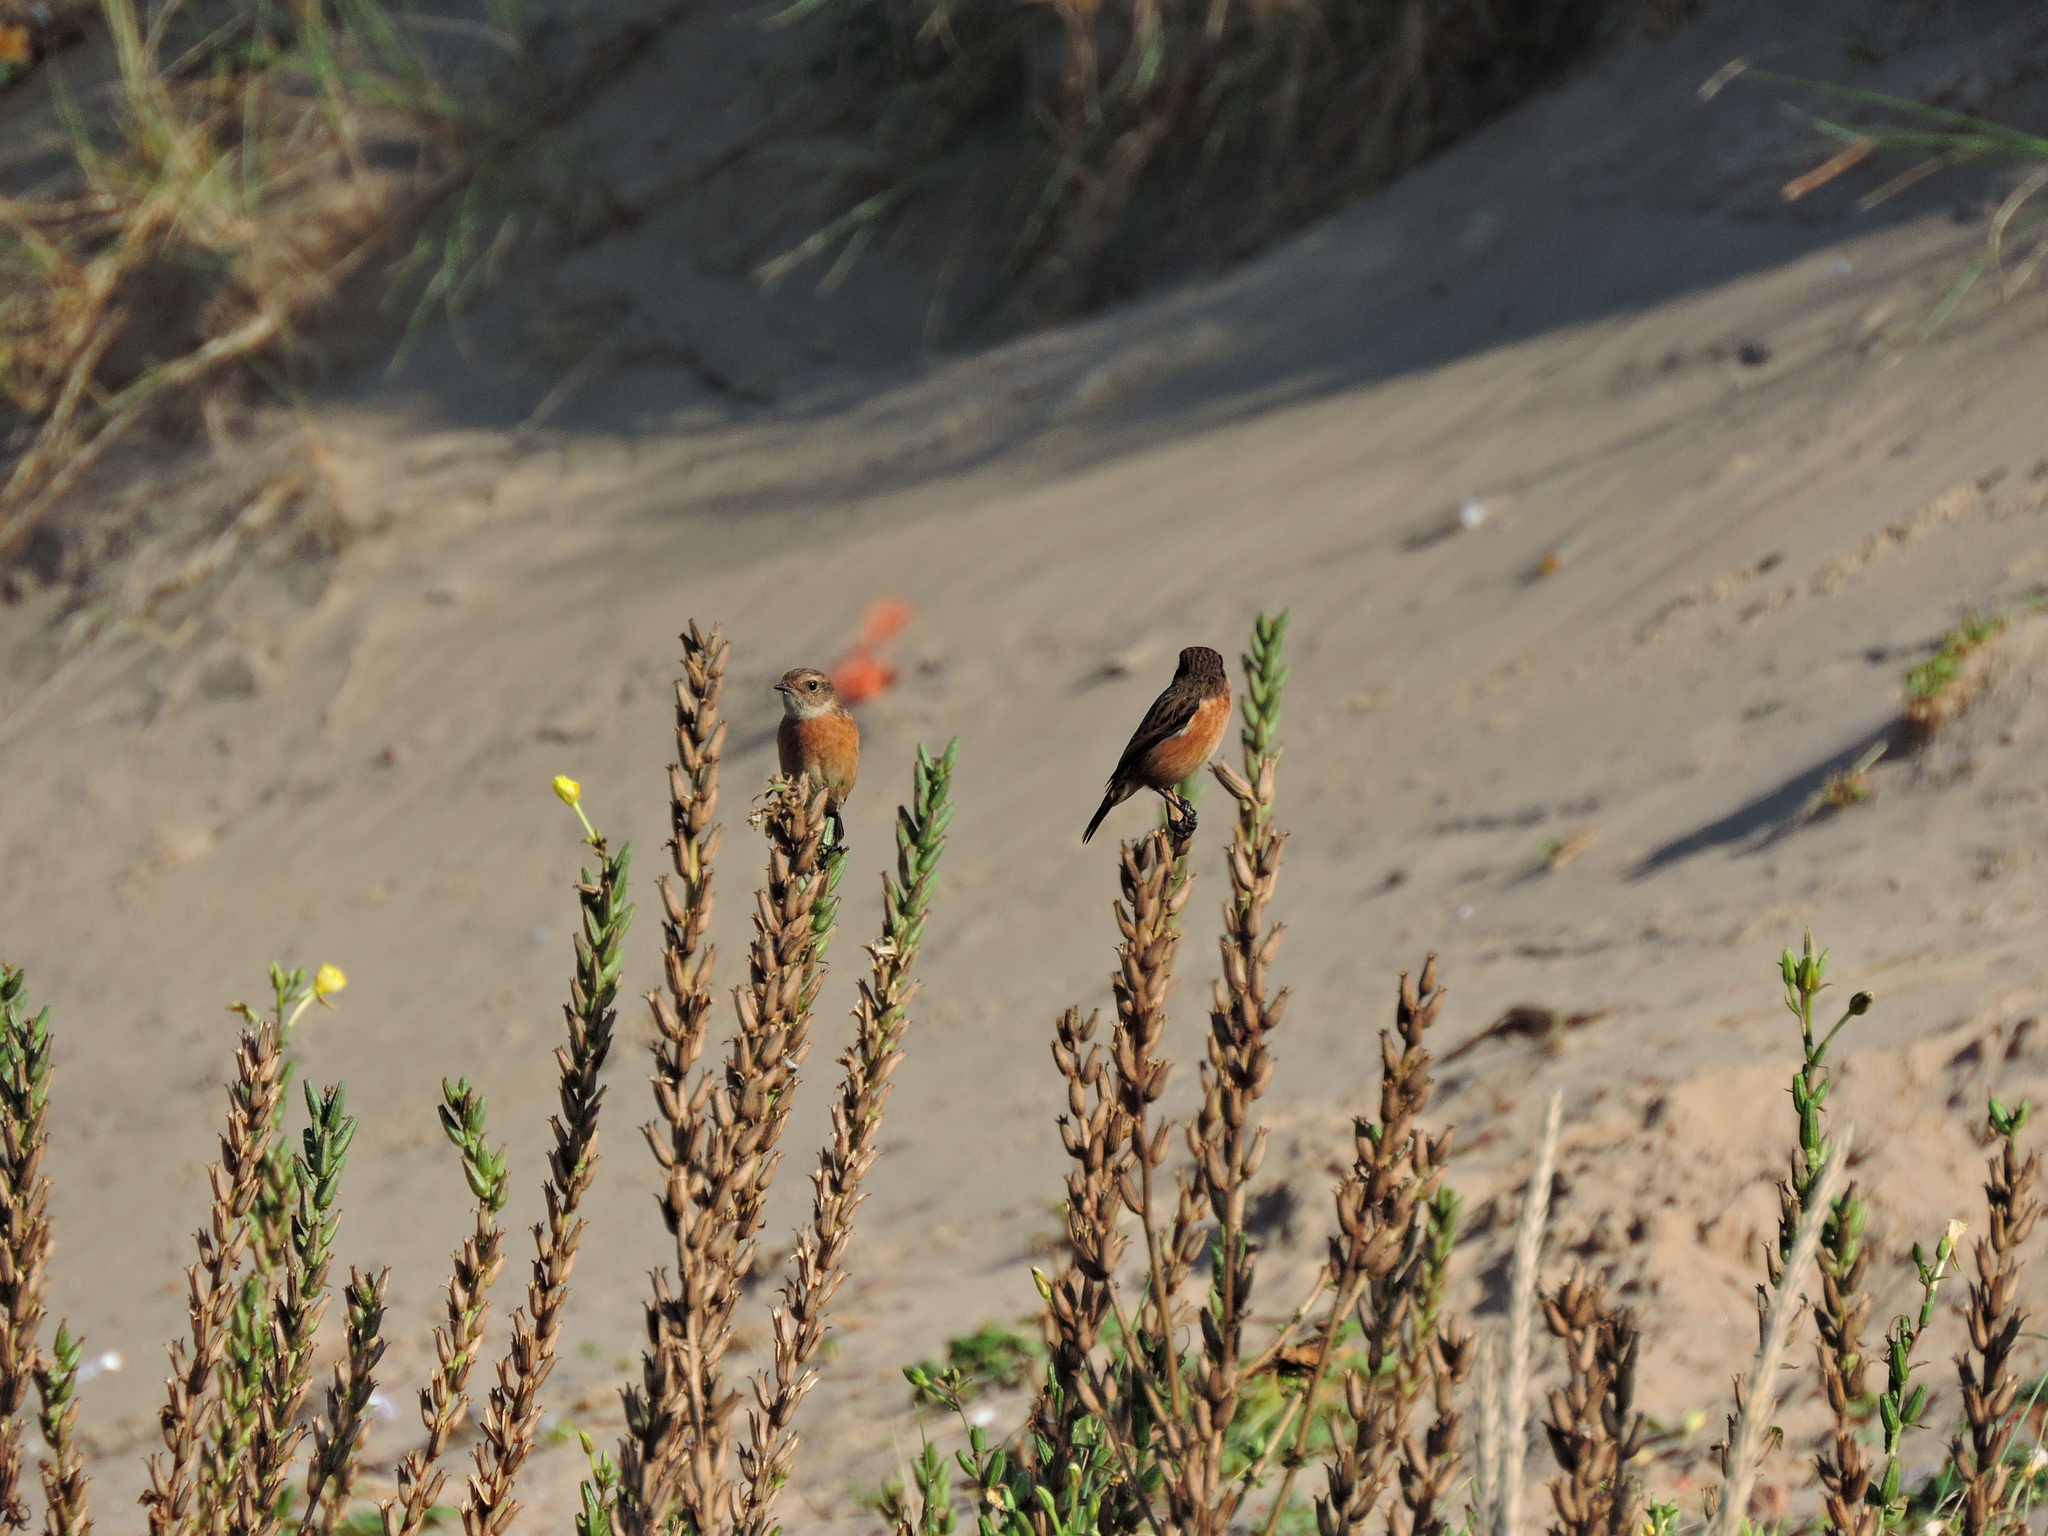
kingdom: Animalia
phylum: Chordata
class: Aves
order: Passeriformes
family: Muscicapidae
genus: Saxicola
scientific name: Saxicola rubicola
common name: European stonechat
